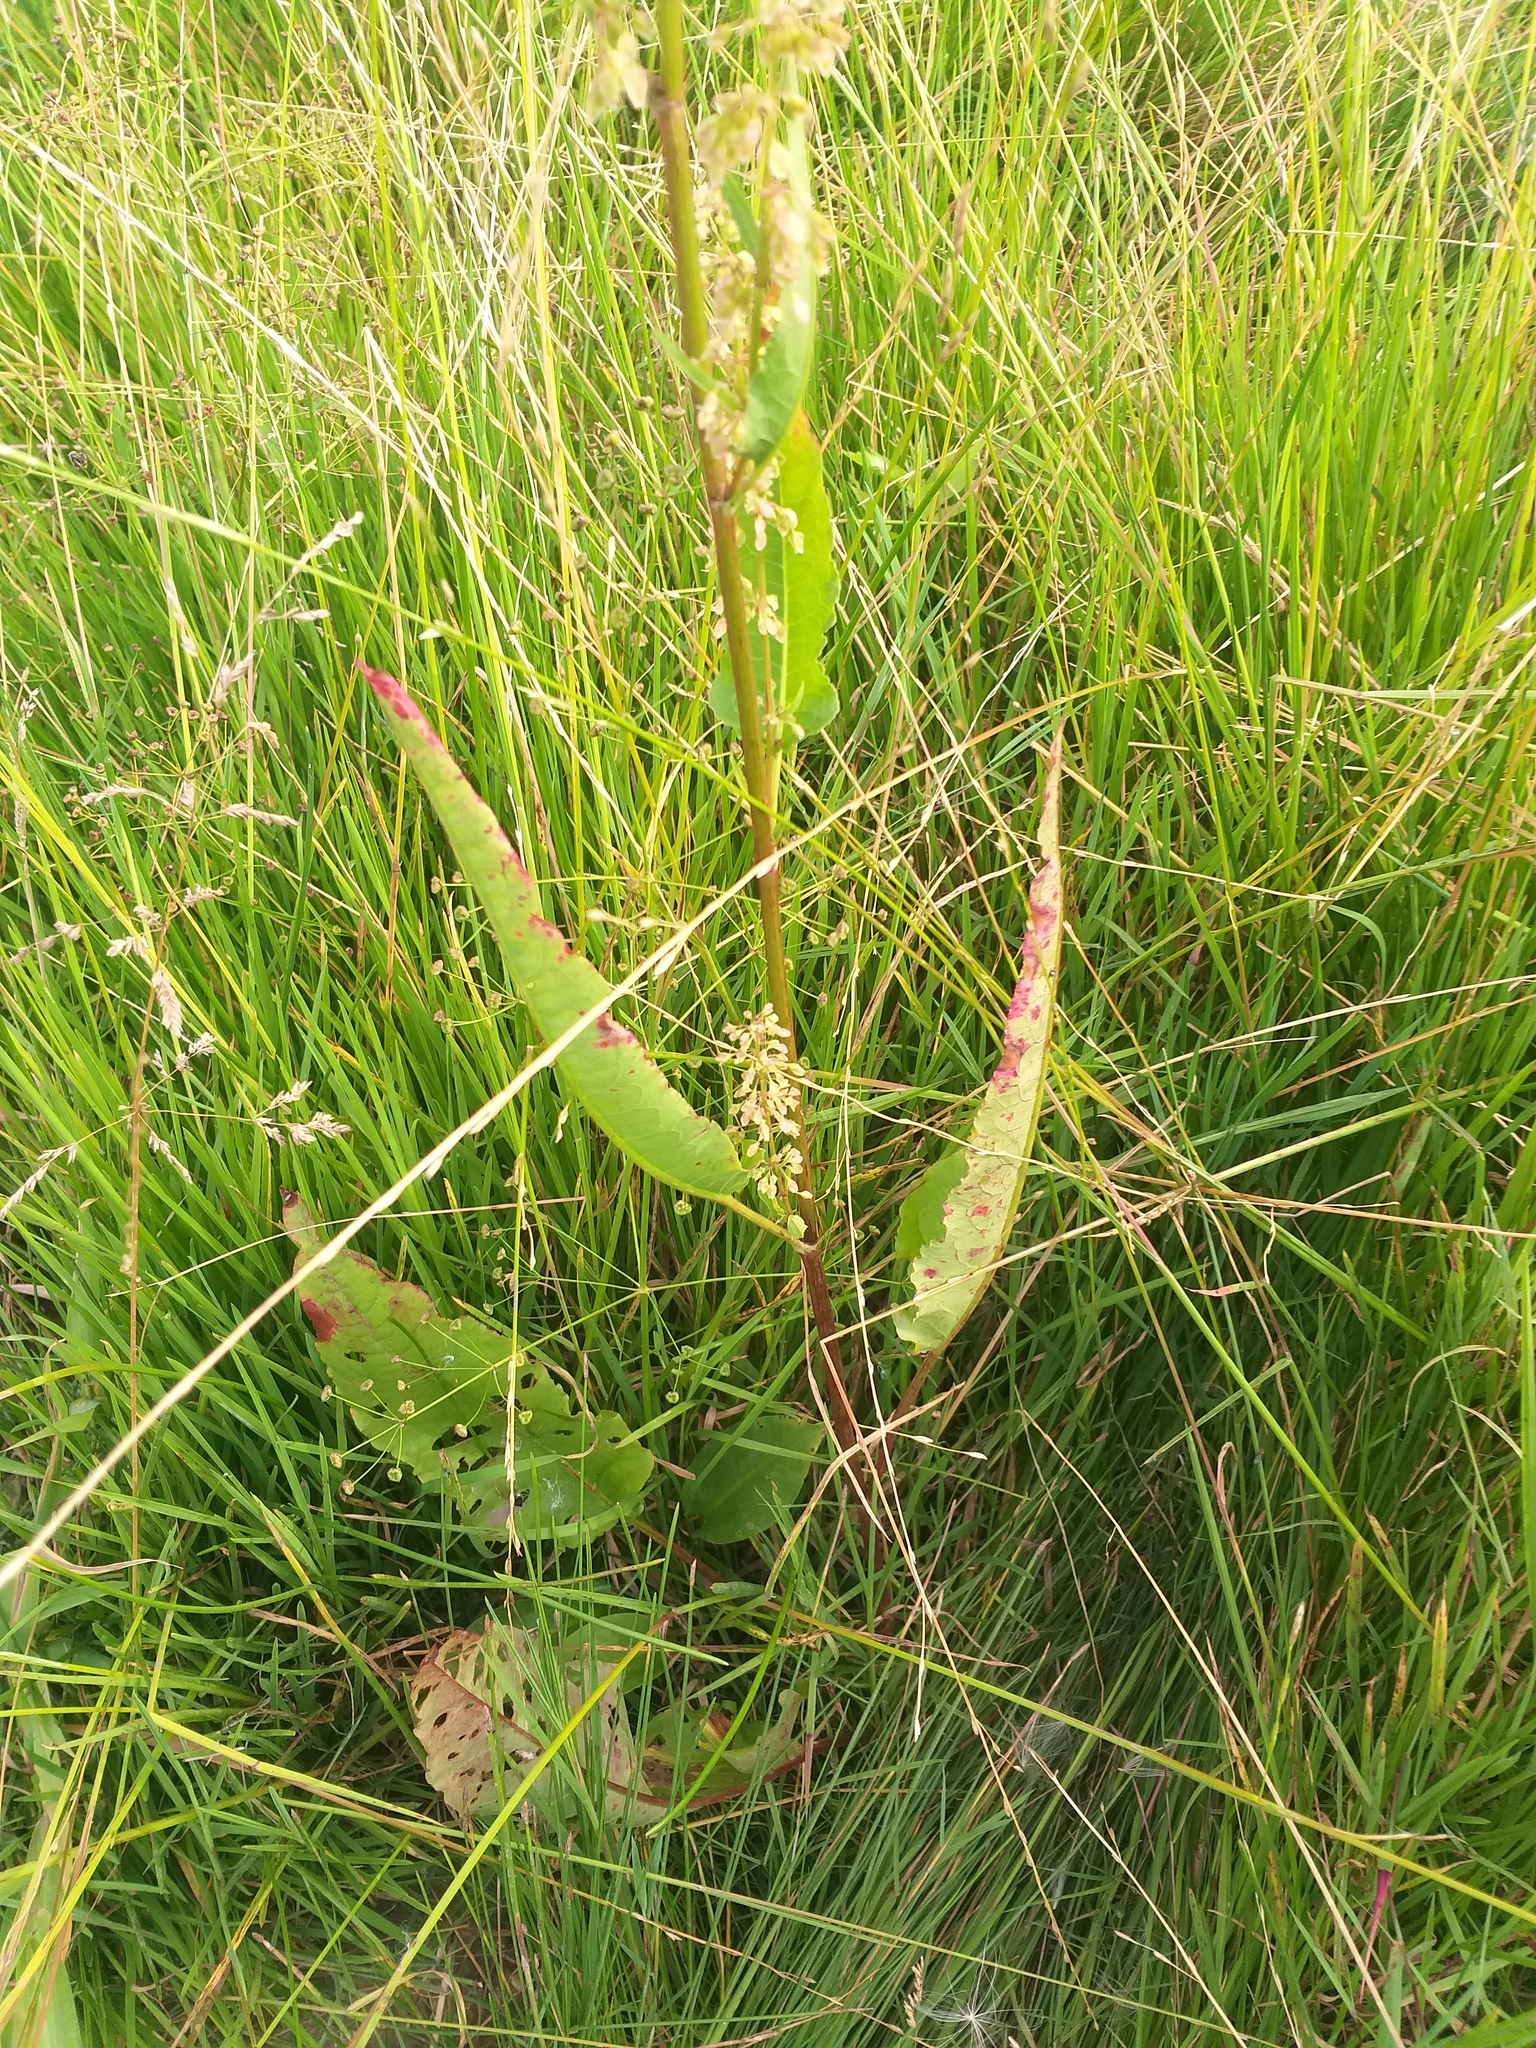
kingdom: Plantae
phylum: Tracheophyta
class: Magnoliopsida
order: Caryophyllales
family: Polygonaceae
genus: Rumex
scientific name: Rumex aquaticus
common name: Scottish dock
